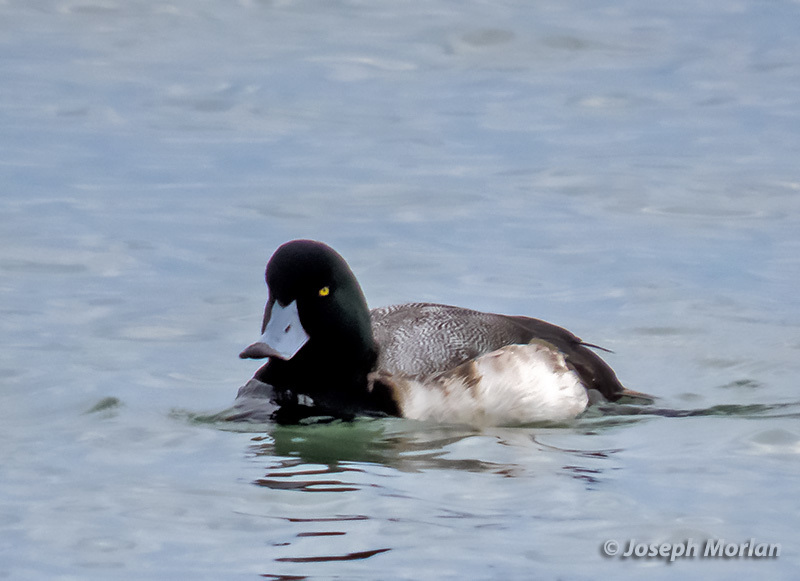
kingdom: Animalia
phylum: Chordata
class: Aves
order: Anseriformes
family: Anatidae
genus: Aythya
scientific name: Aythya marila
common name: Greater scaup
